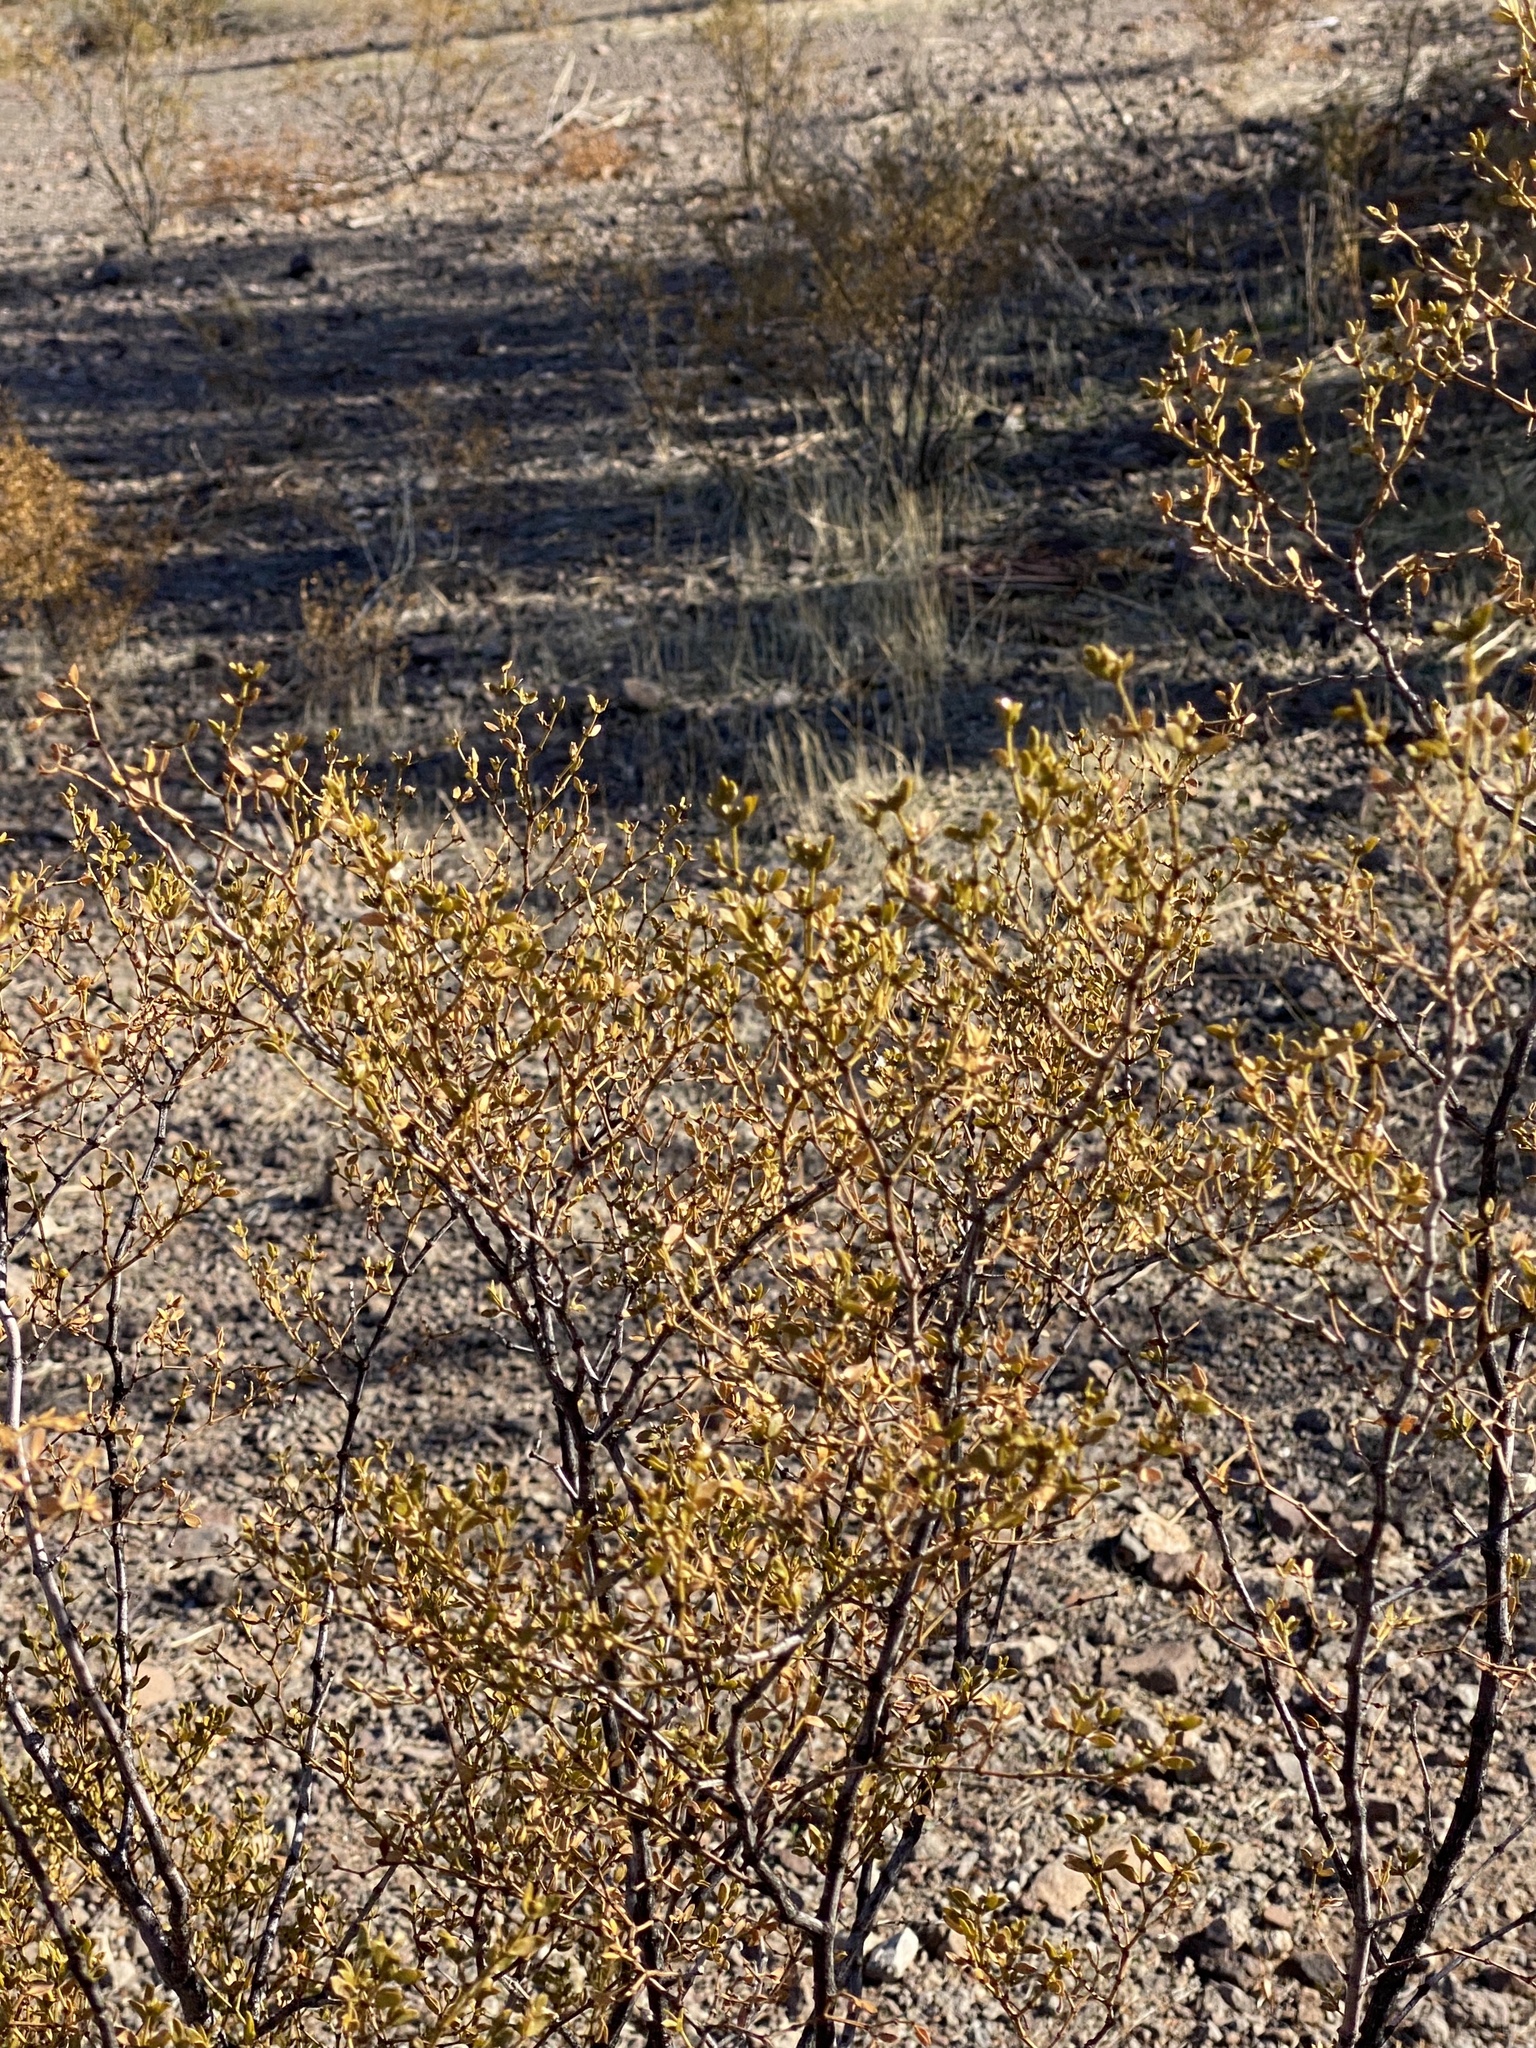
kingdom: Plantae
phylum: Tracheophyta
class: Magnoliopsida
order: Zygophyllales
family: Zygophyllaceae
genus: Larrea
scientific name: Larrea tridentata
